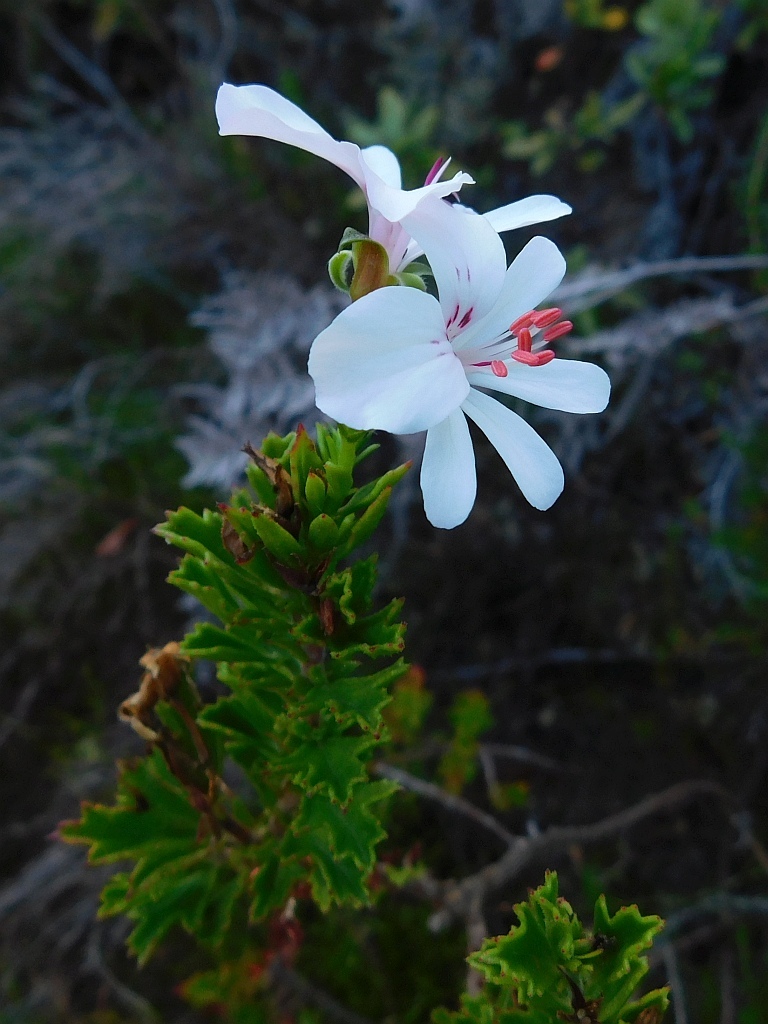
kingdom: Plantae
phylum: Tracheophyta
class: Magnoliopsida
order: Geraniales
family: Geraniaceae
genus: Pelargonium
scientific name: Pelargonium hermaniifolium
